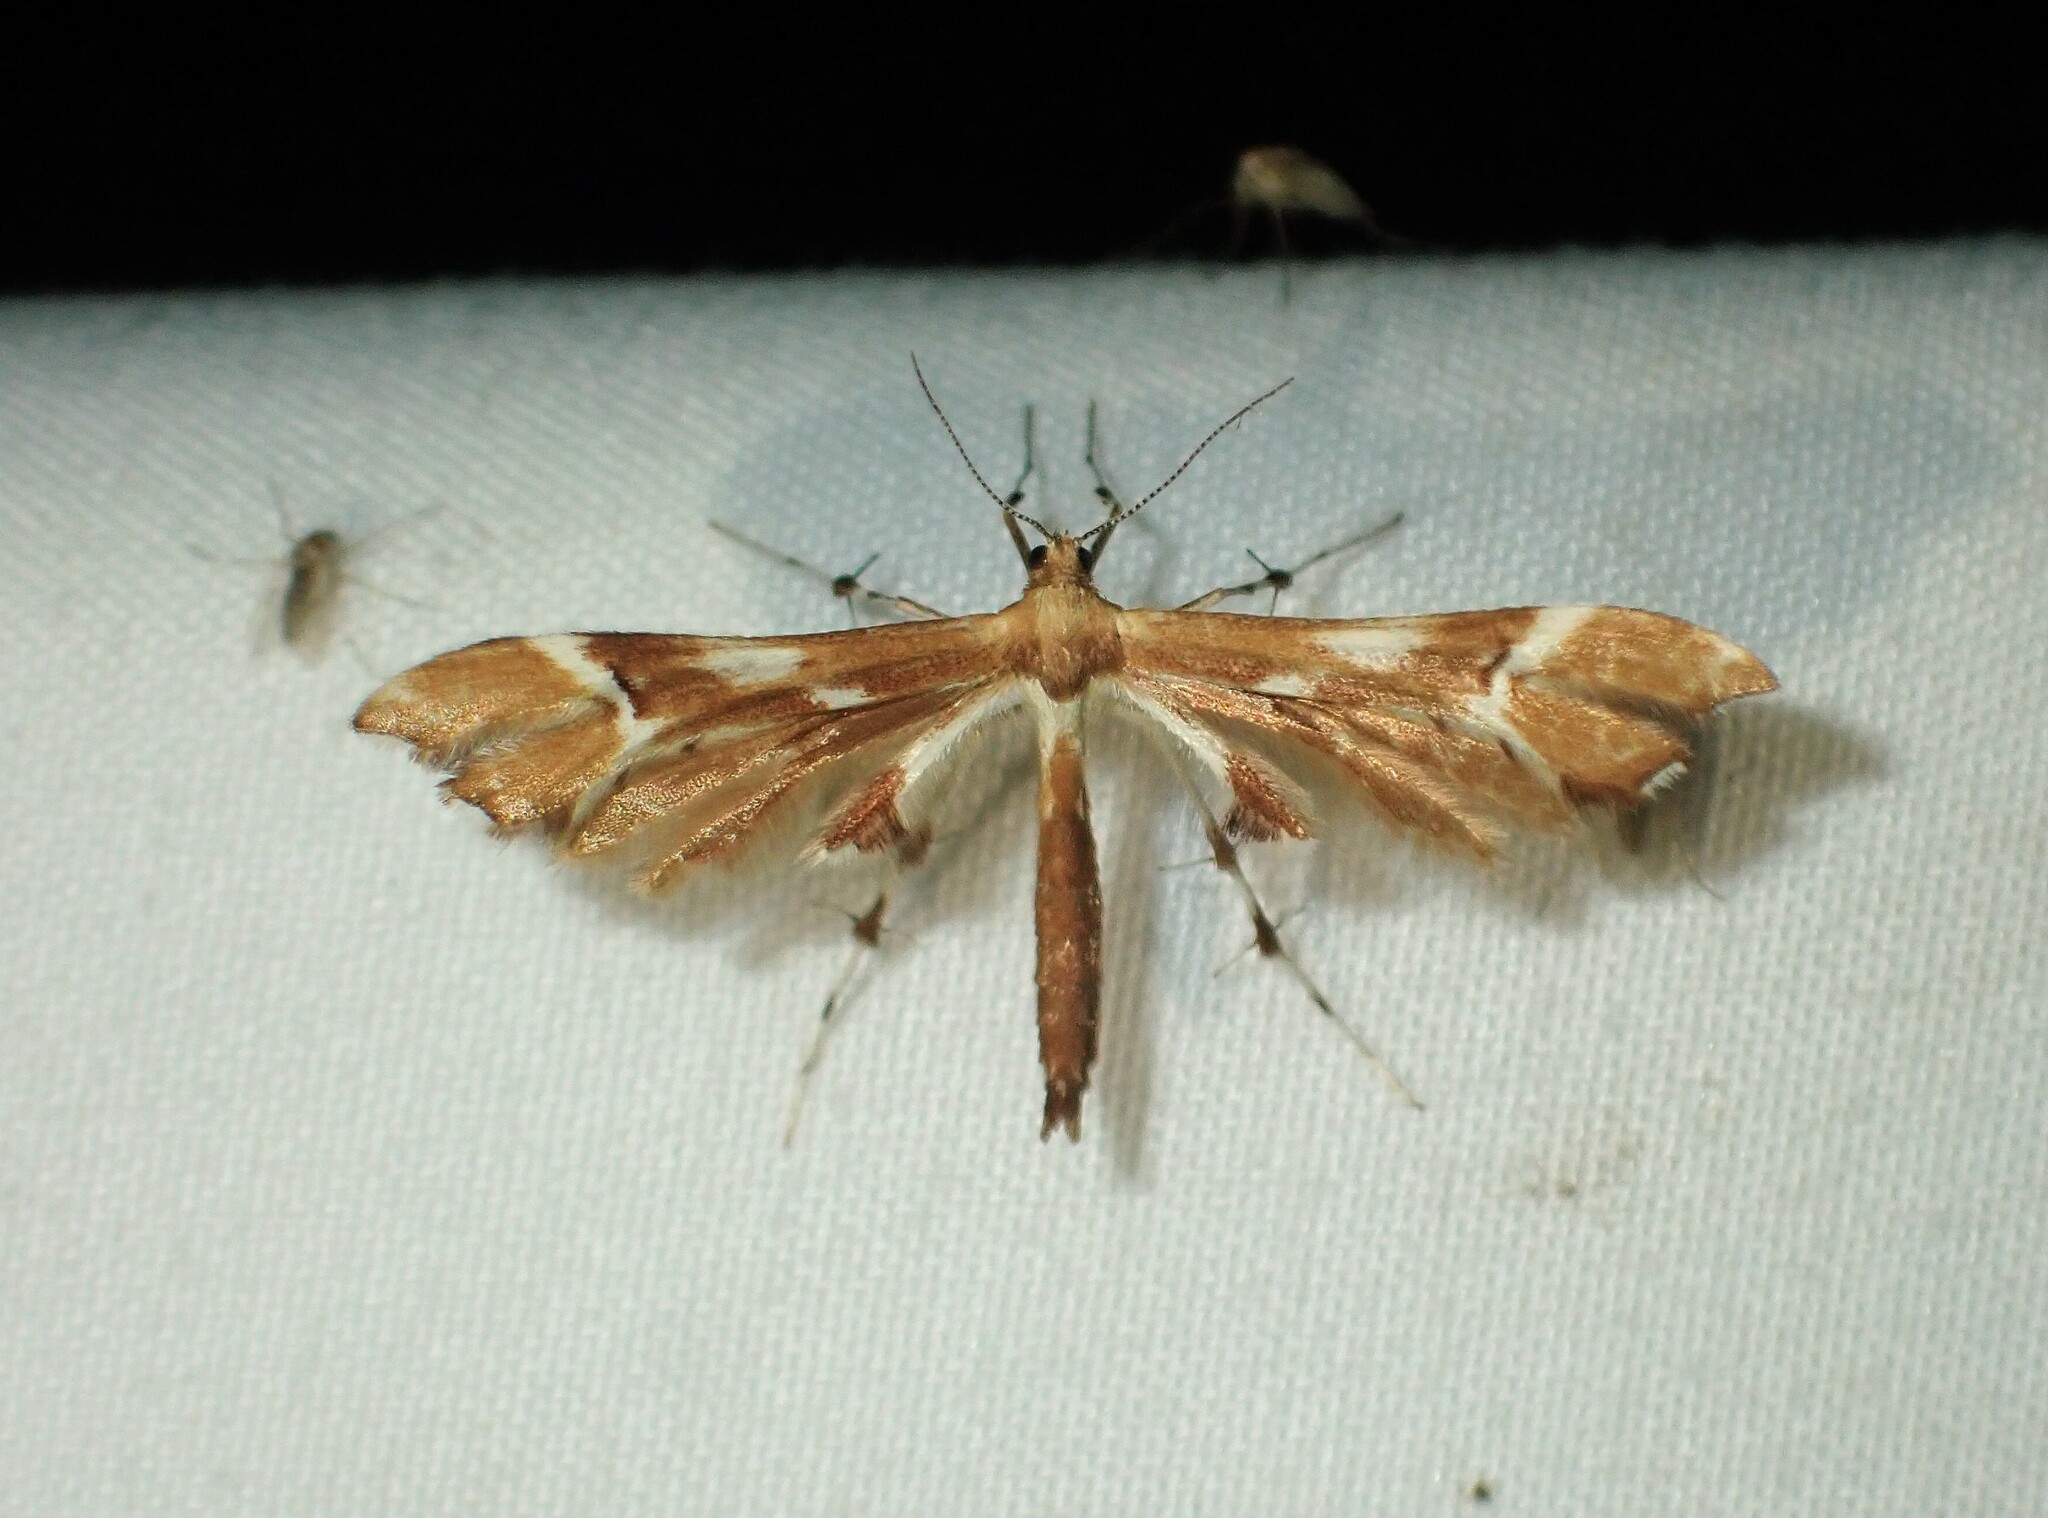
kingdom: Animalia
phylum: Arthropoda
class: Insecta
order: Lepidoptera
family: Pterophoridae
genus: Cnaemidophorus
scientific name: Cnaemidophorus rhododactyla
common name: Rose plume
